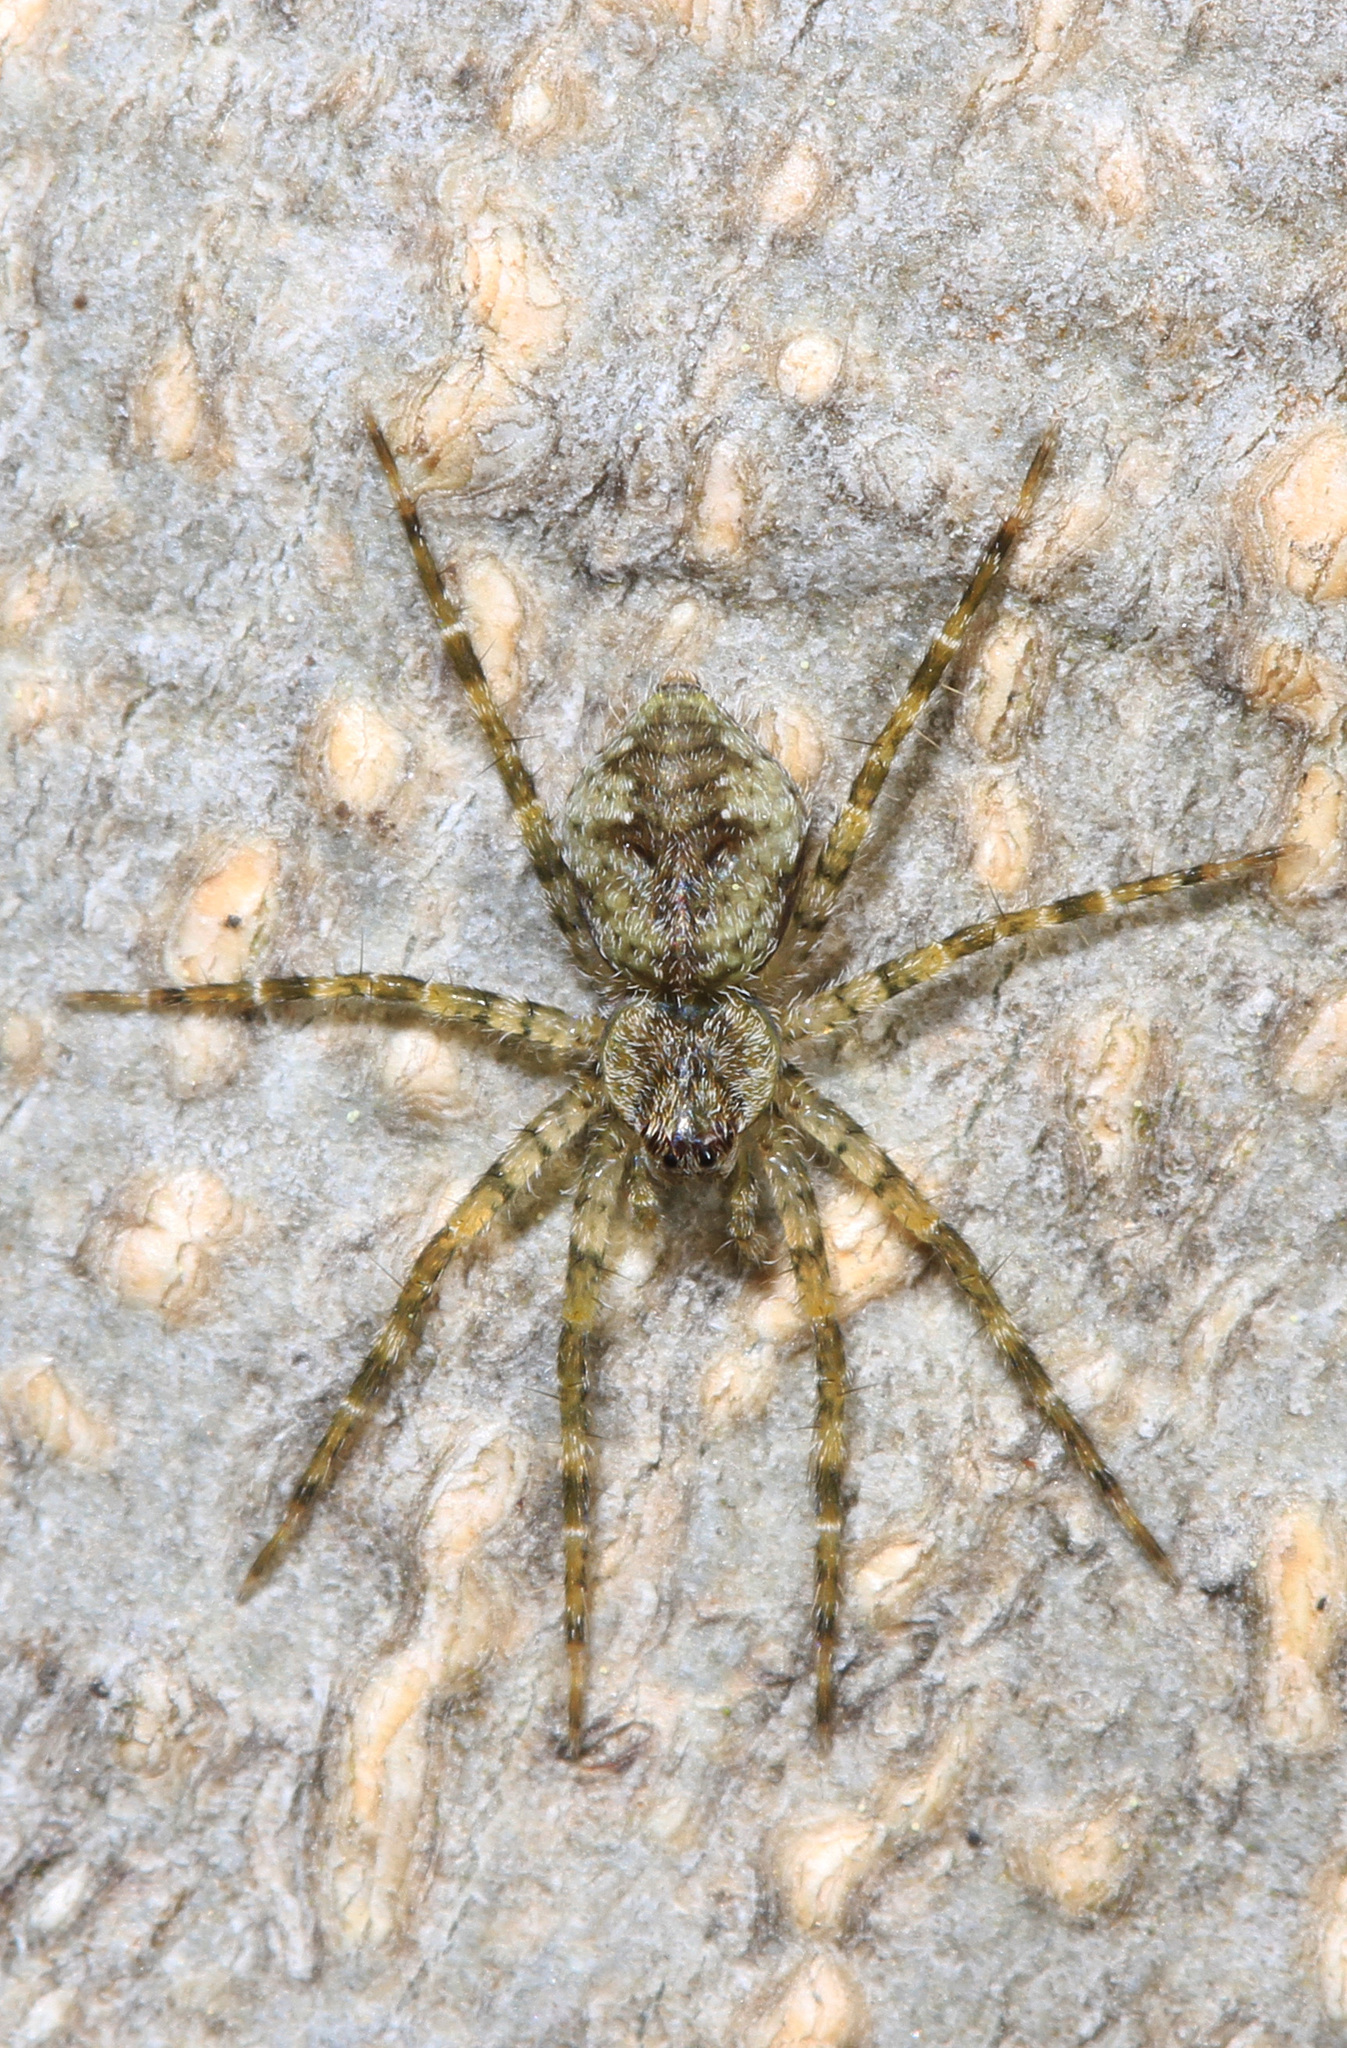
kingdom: Animalia
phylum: Arthropoda
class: Arachnida
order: Araneae
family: Pisauridae
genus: Dolomedes
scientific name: Dolomedes albineus
